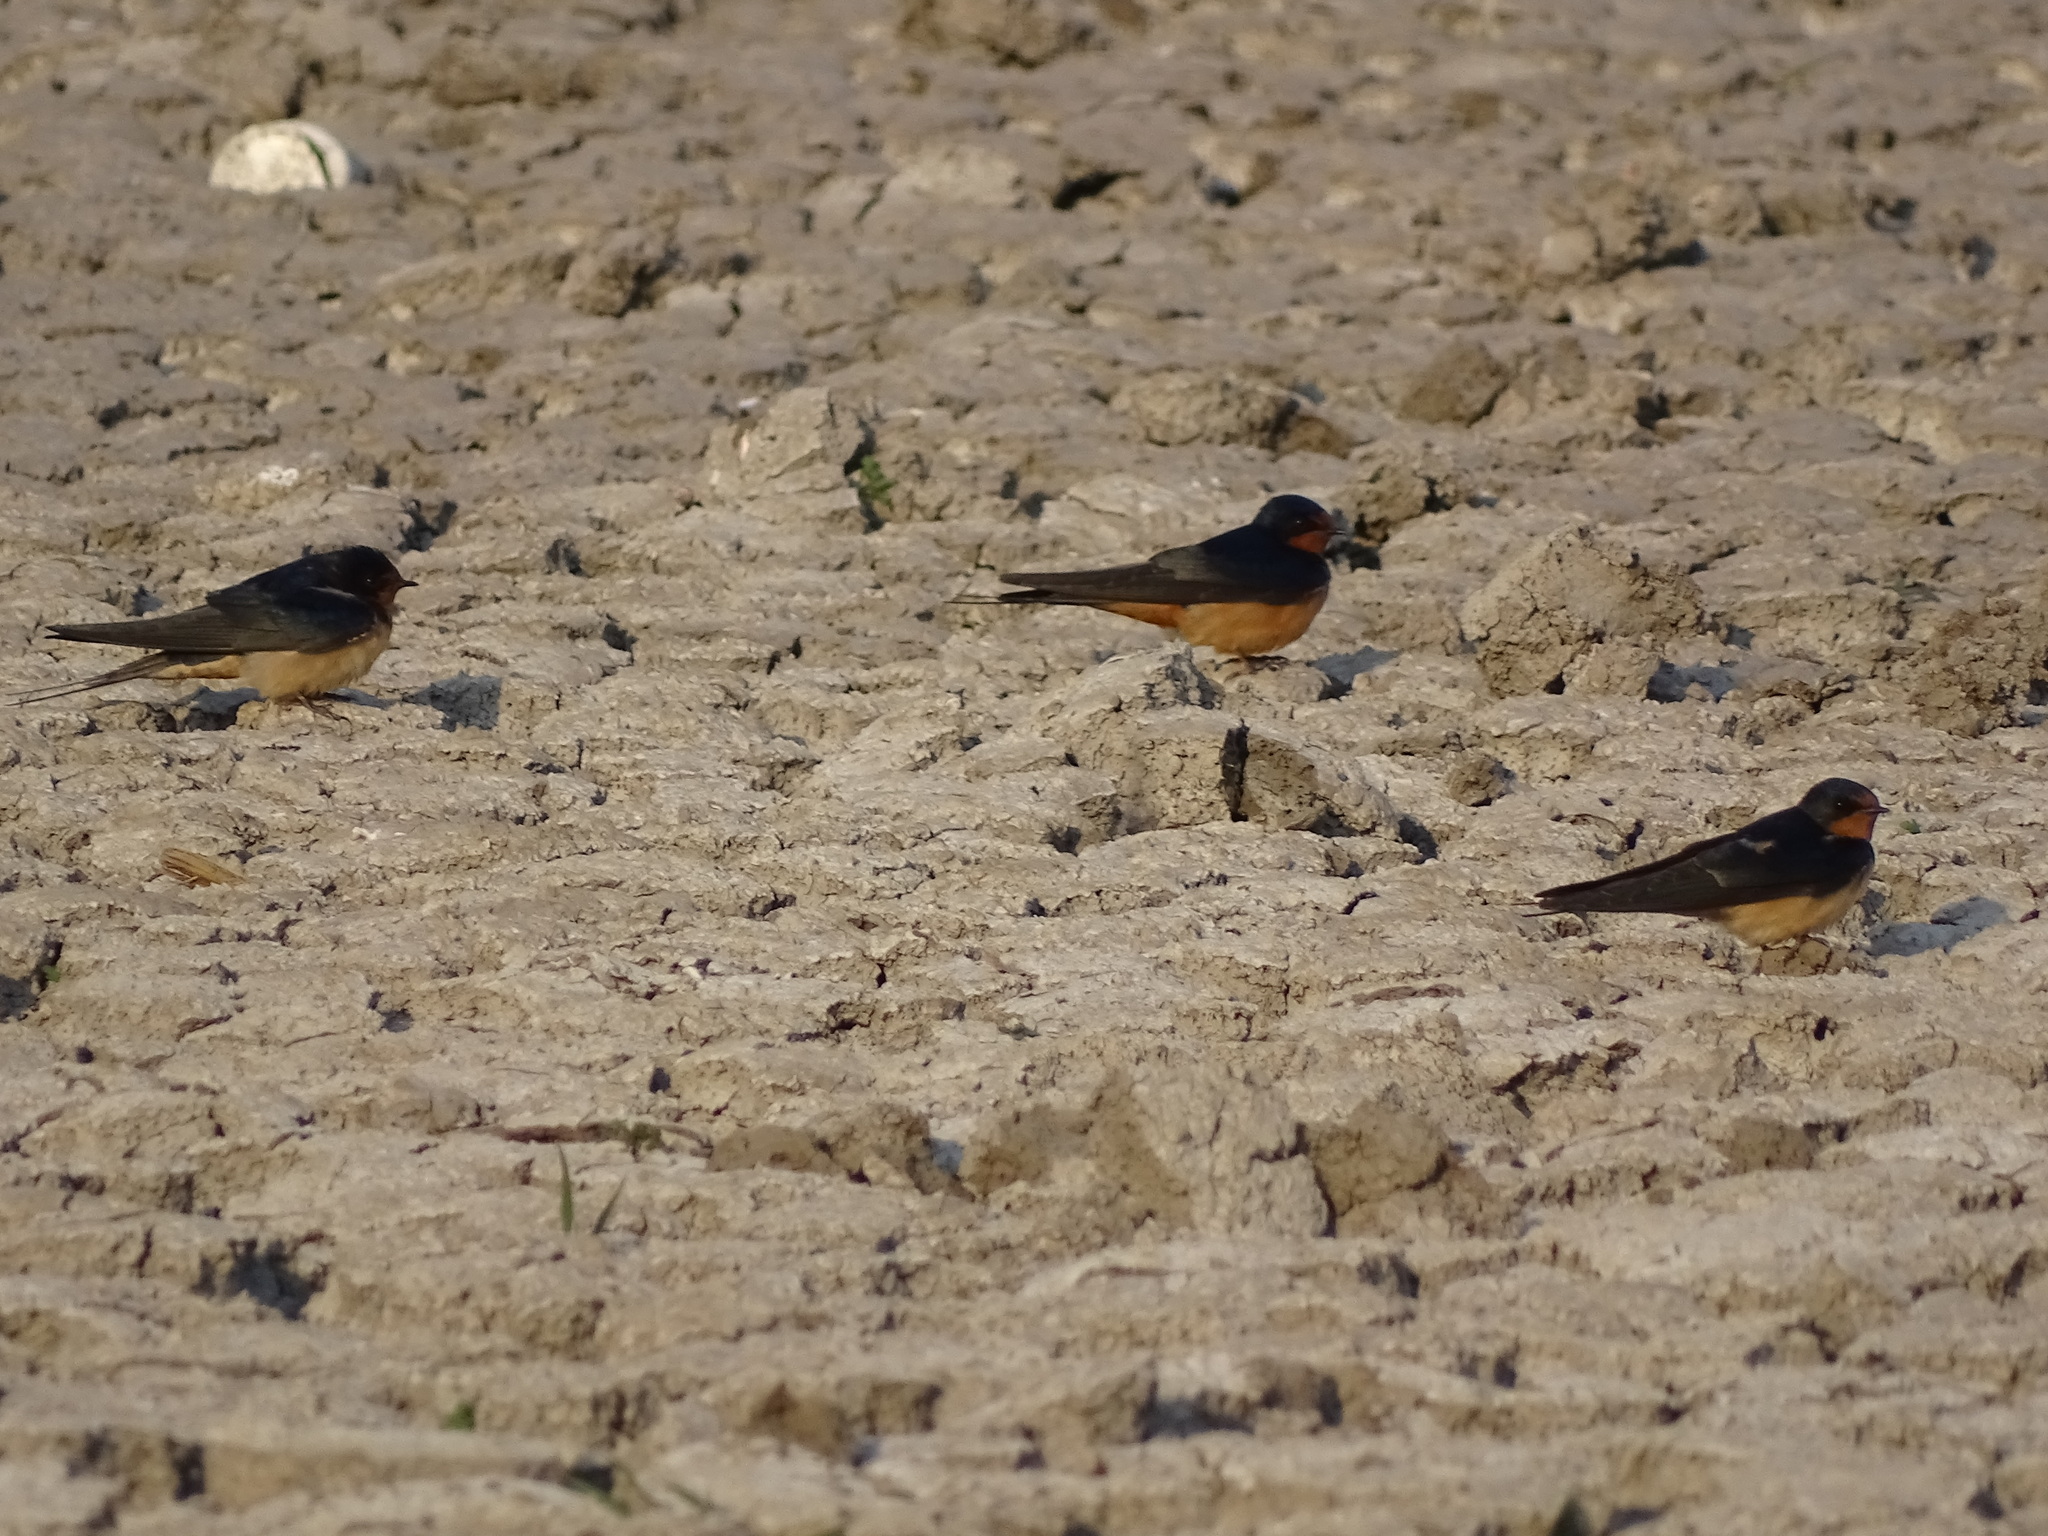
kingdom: Animalia
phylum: Chordata
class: Aves
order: Passeriformes
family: Hirundinidae
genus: Hirundo
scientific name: Hirundo rustica
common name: Barn swallow
